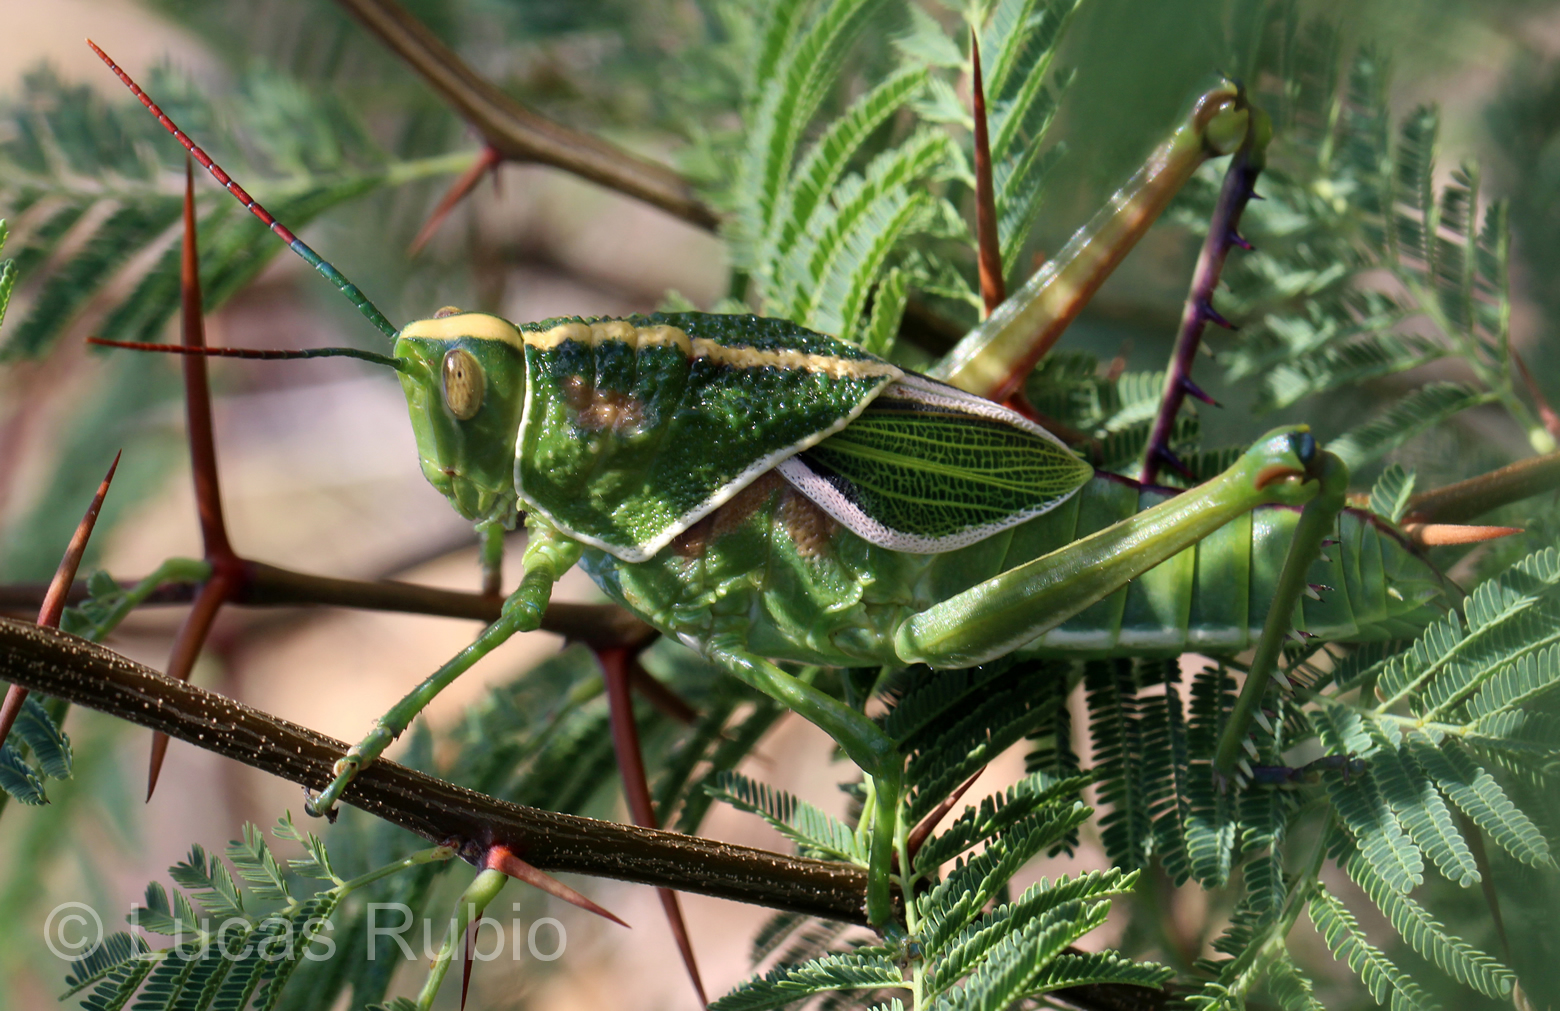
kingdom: Animalia
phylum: Arthropoda
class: Insecta
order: Orthoptera
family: Romaleidae
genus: Staleochlora
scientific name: Staleochlora ronderosi
